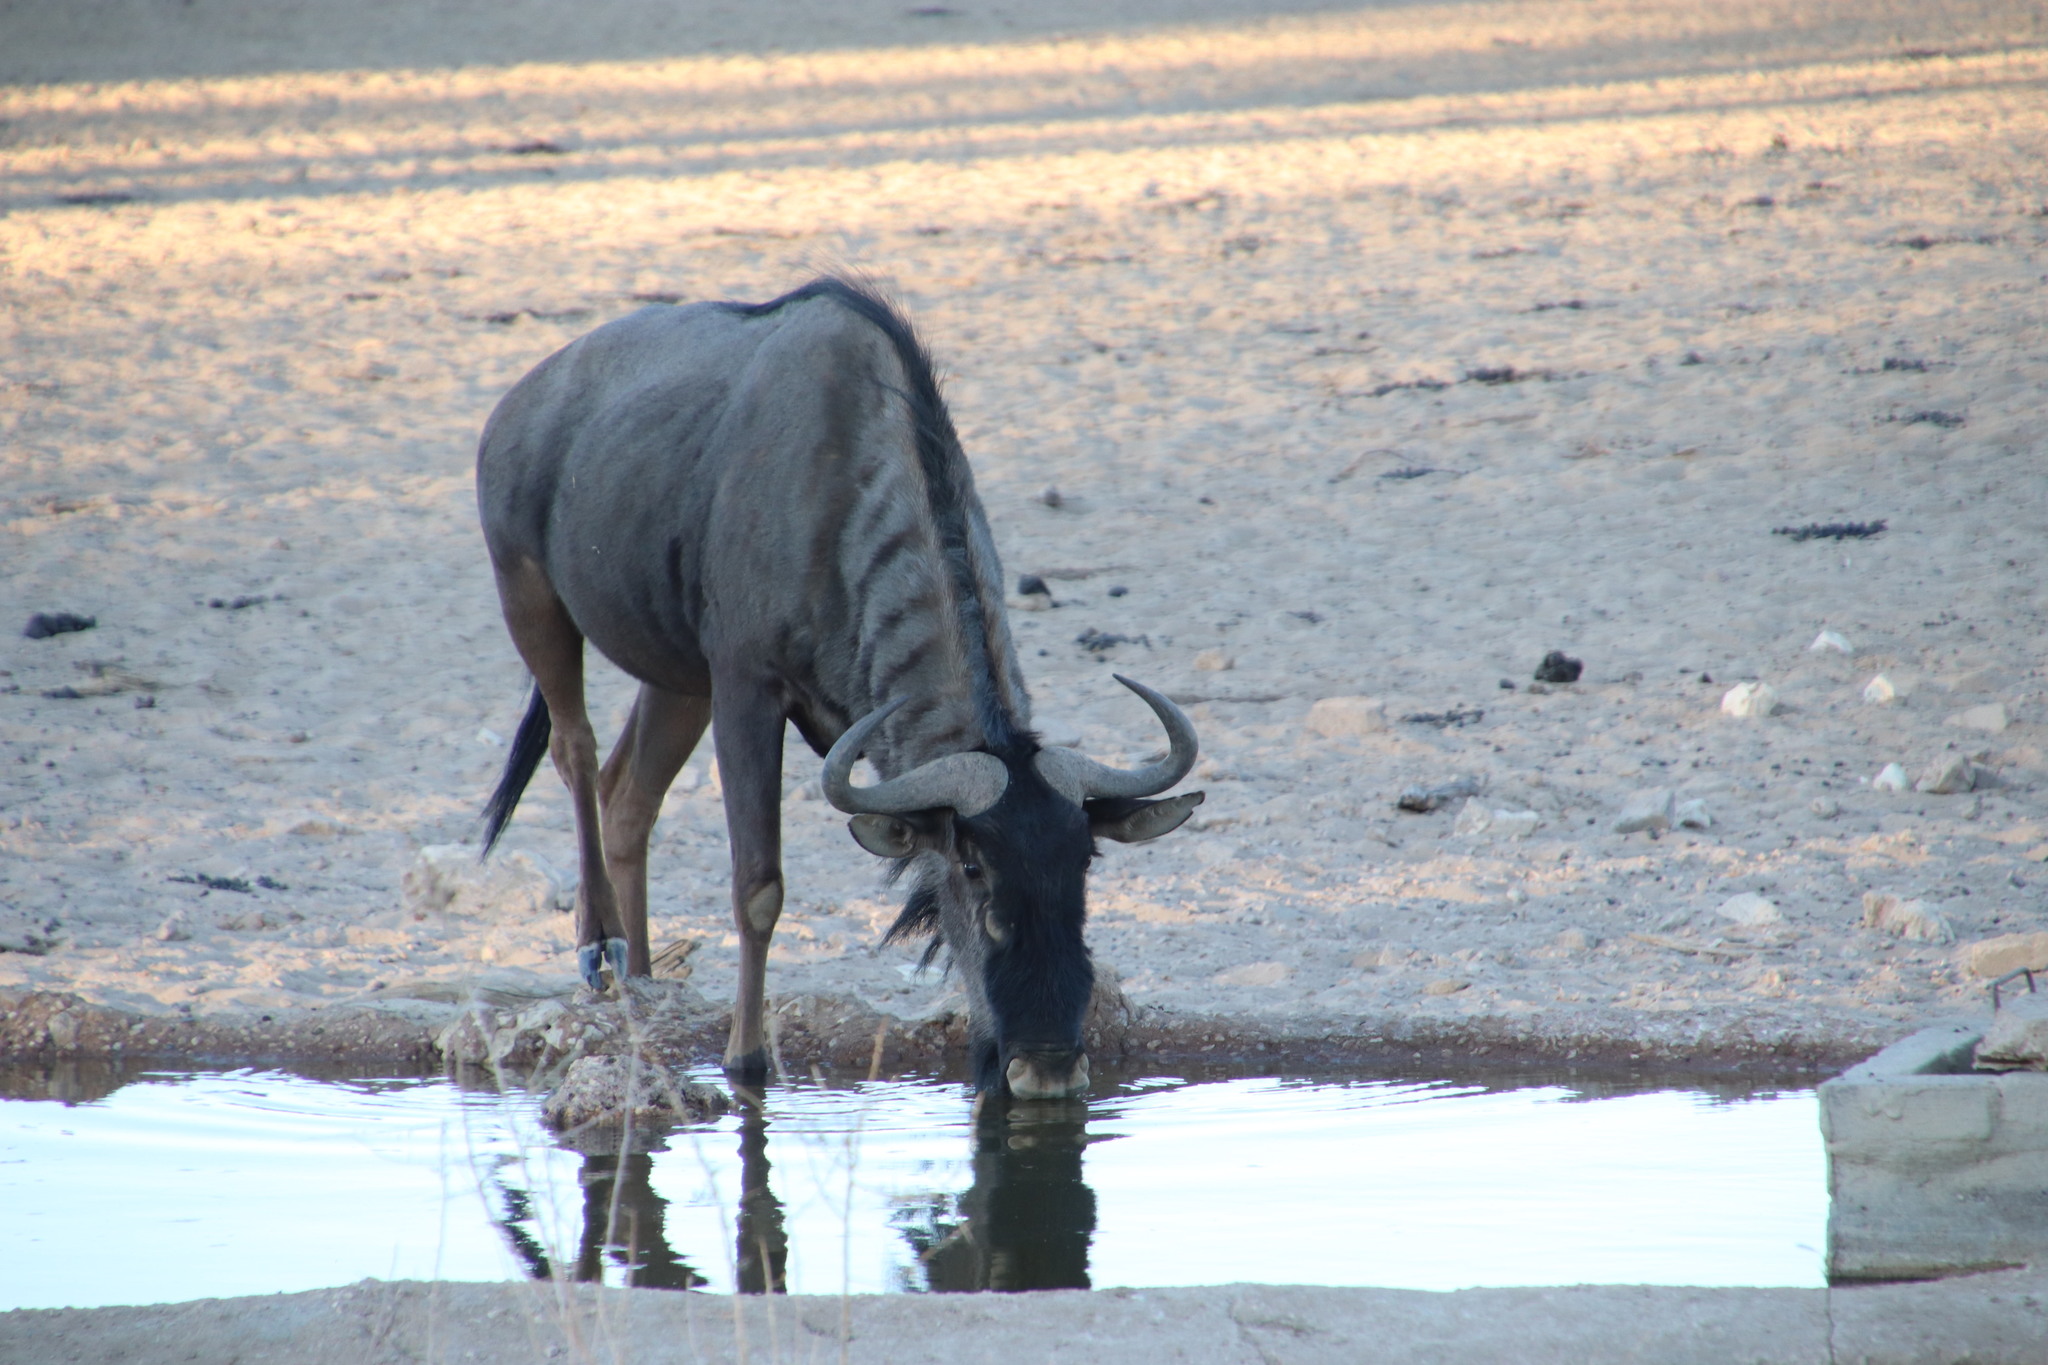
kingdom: Animalia
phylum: Chordata
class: Mammalia
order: Artiodactyla
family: Bovidae
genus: Connochaetes
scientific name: Connochaetes taurinus
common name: Blue wildebeest
